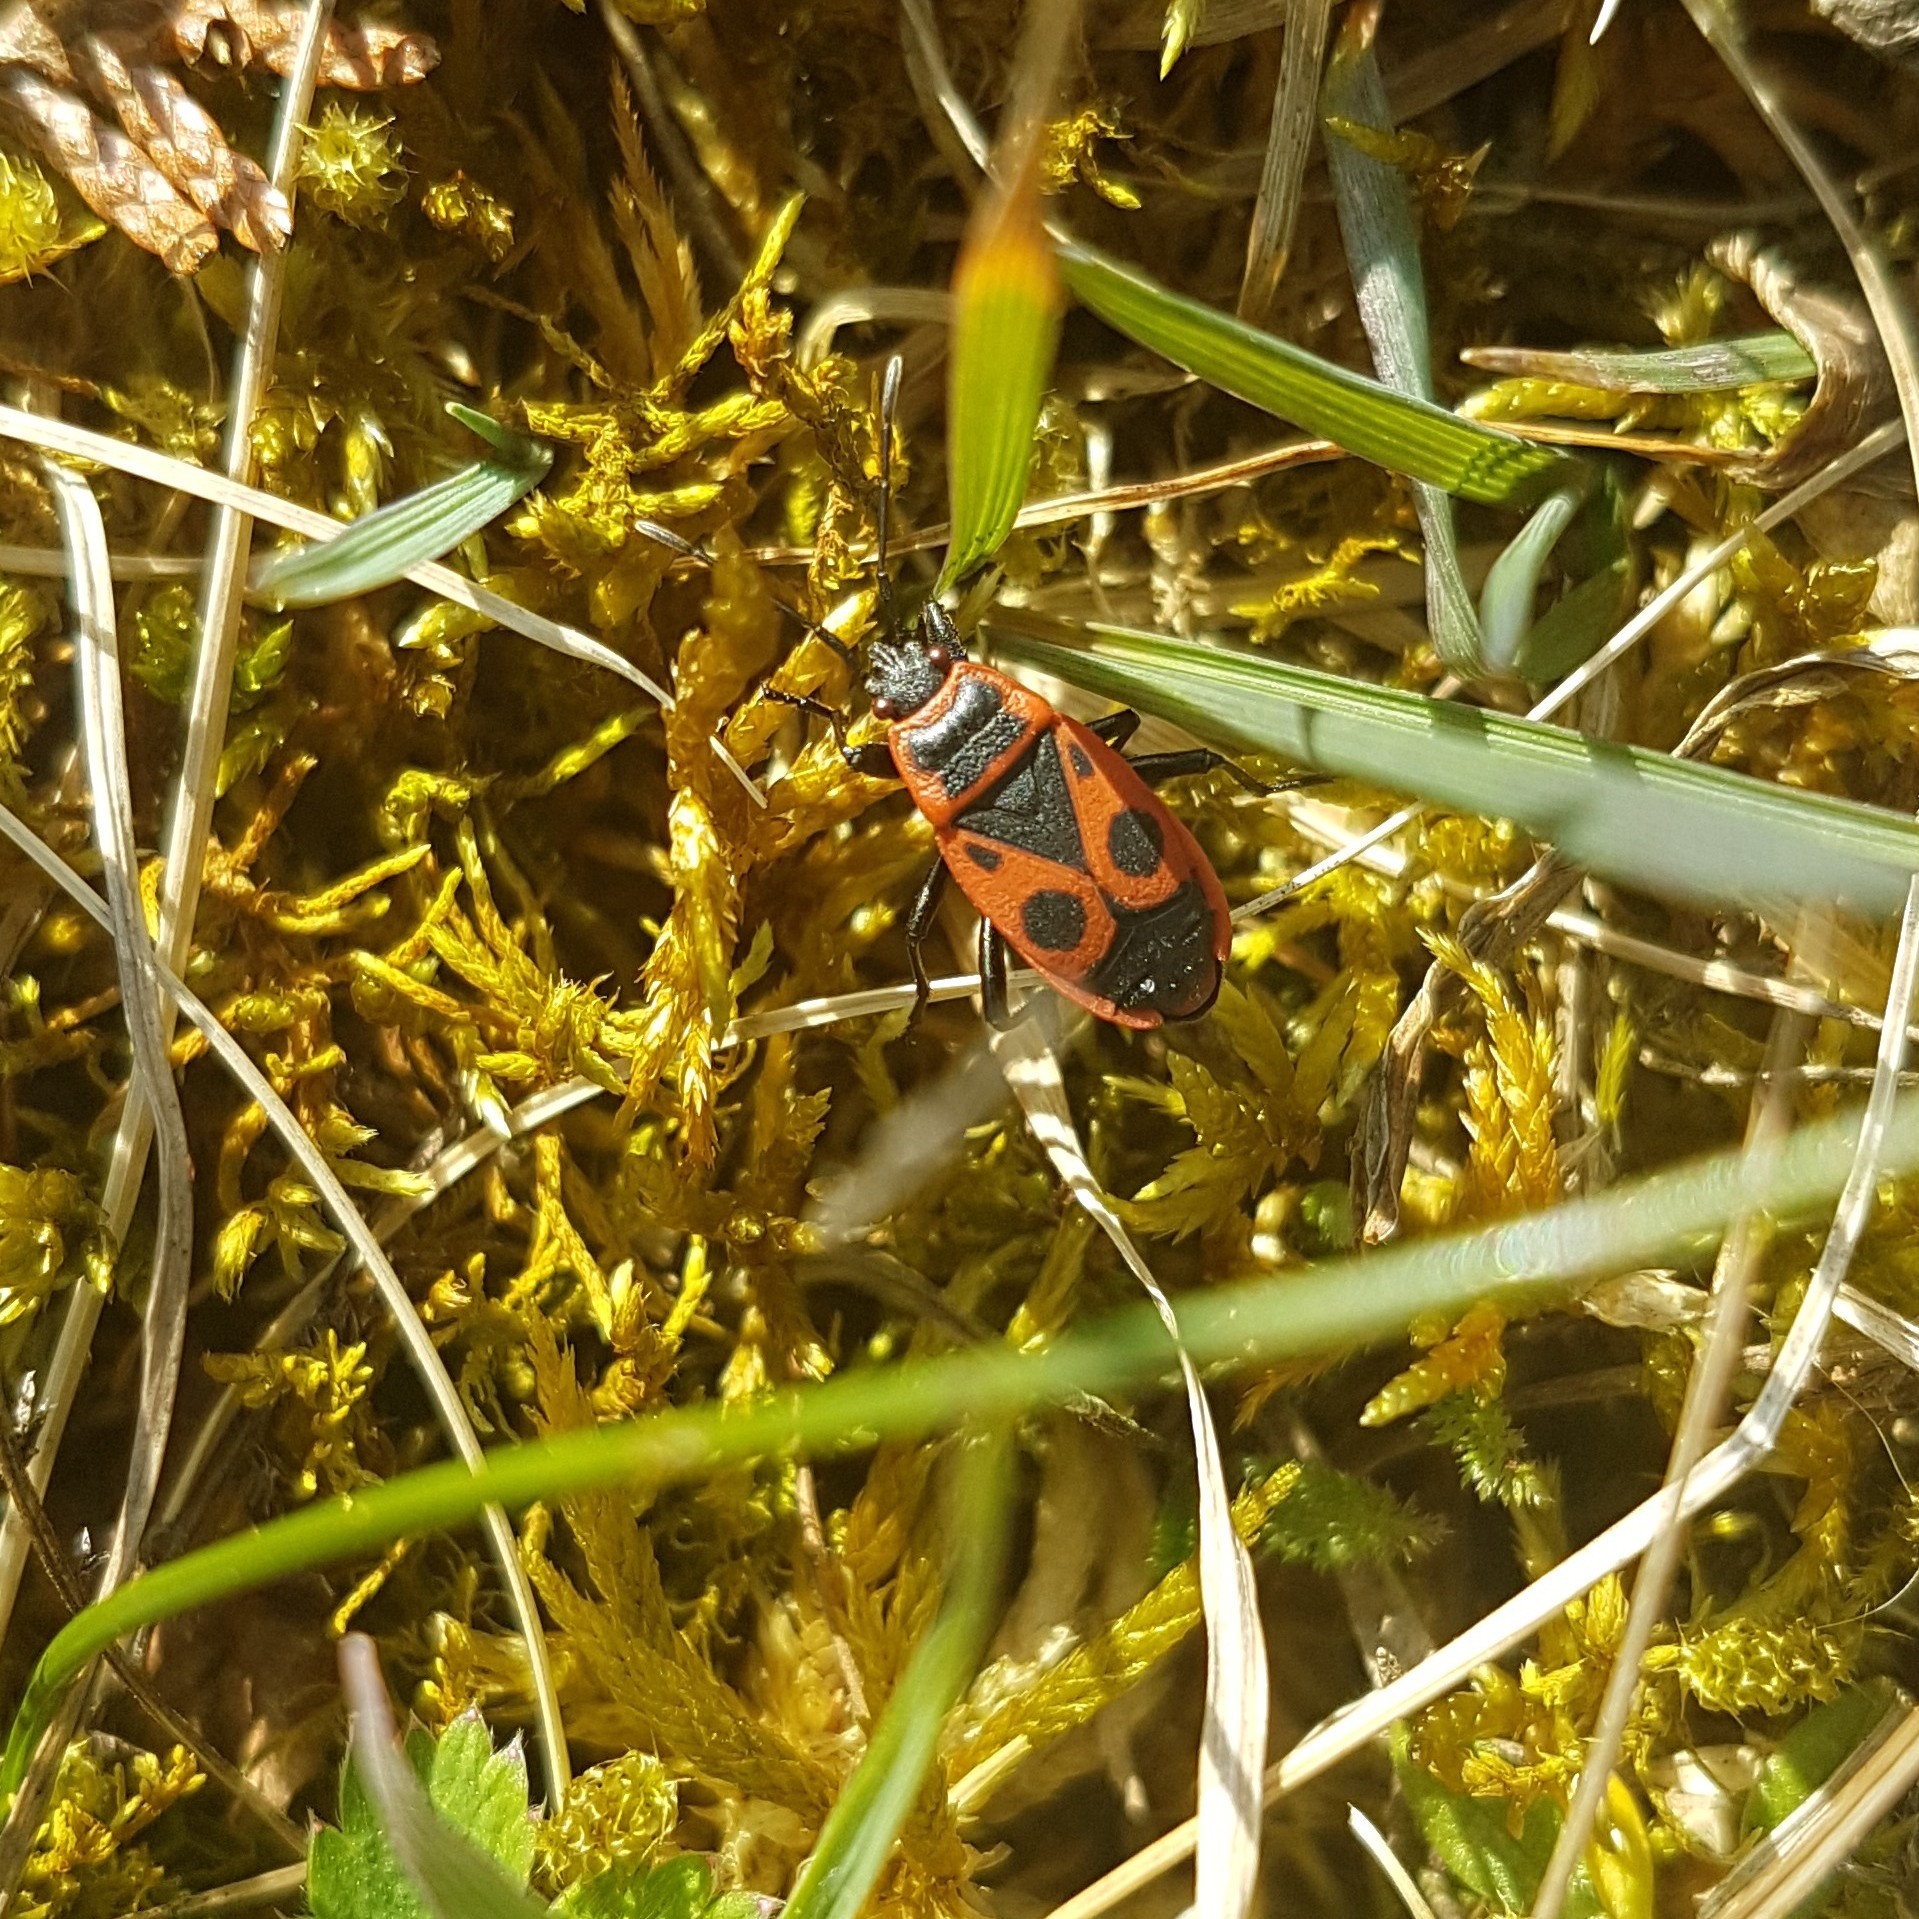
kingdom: Animalia
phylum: Arthropoda
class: Insecta
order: Hemiptera
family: Pyrrhocoridae
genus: Pyrrhocoris
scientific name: Pyrrhocoris apterus
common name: Firebug
